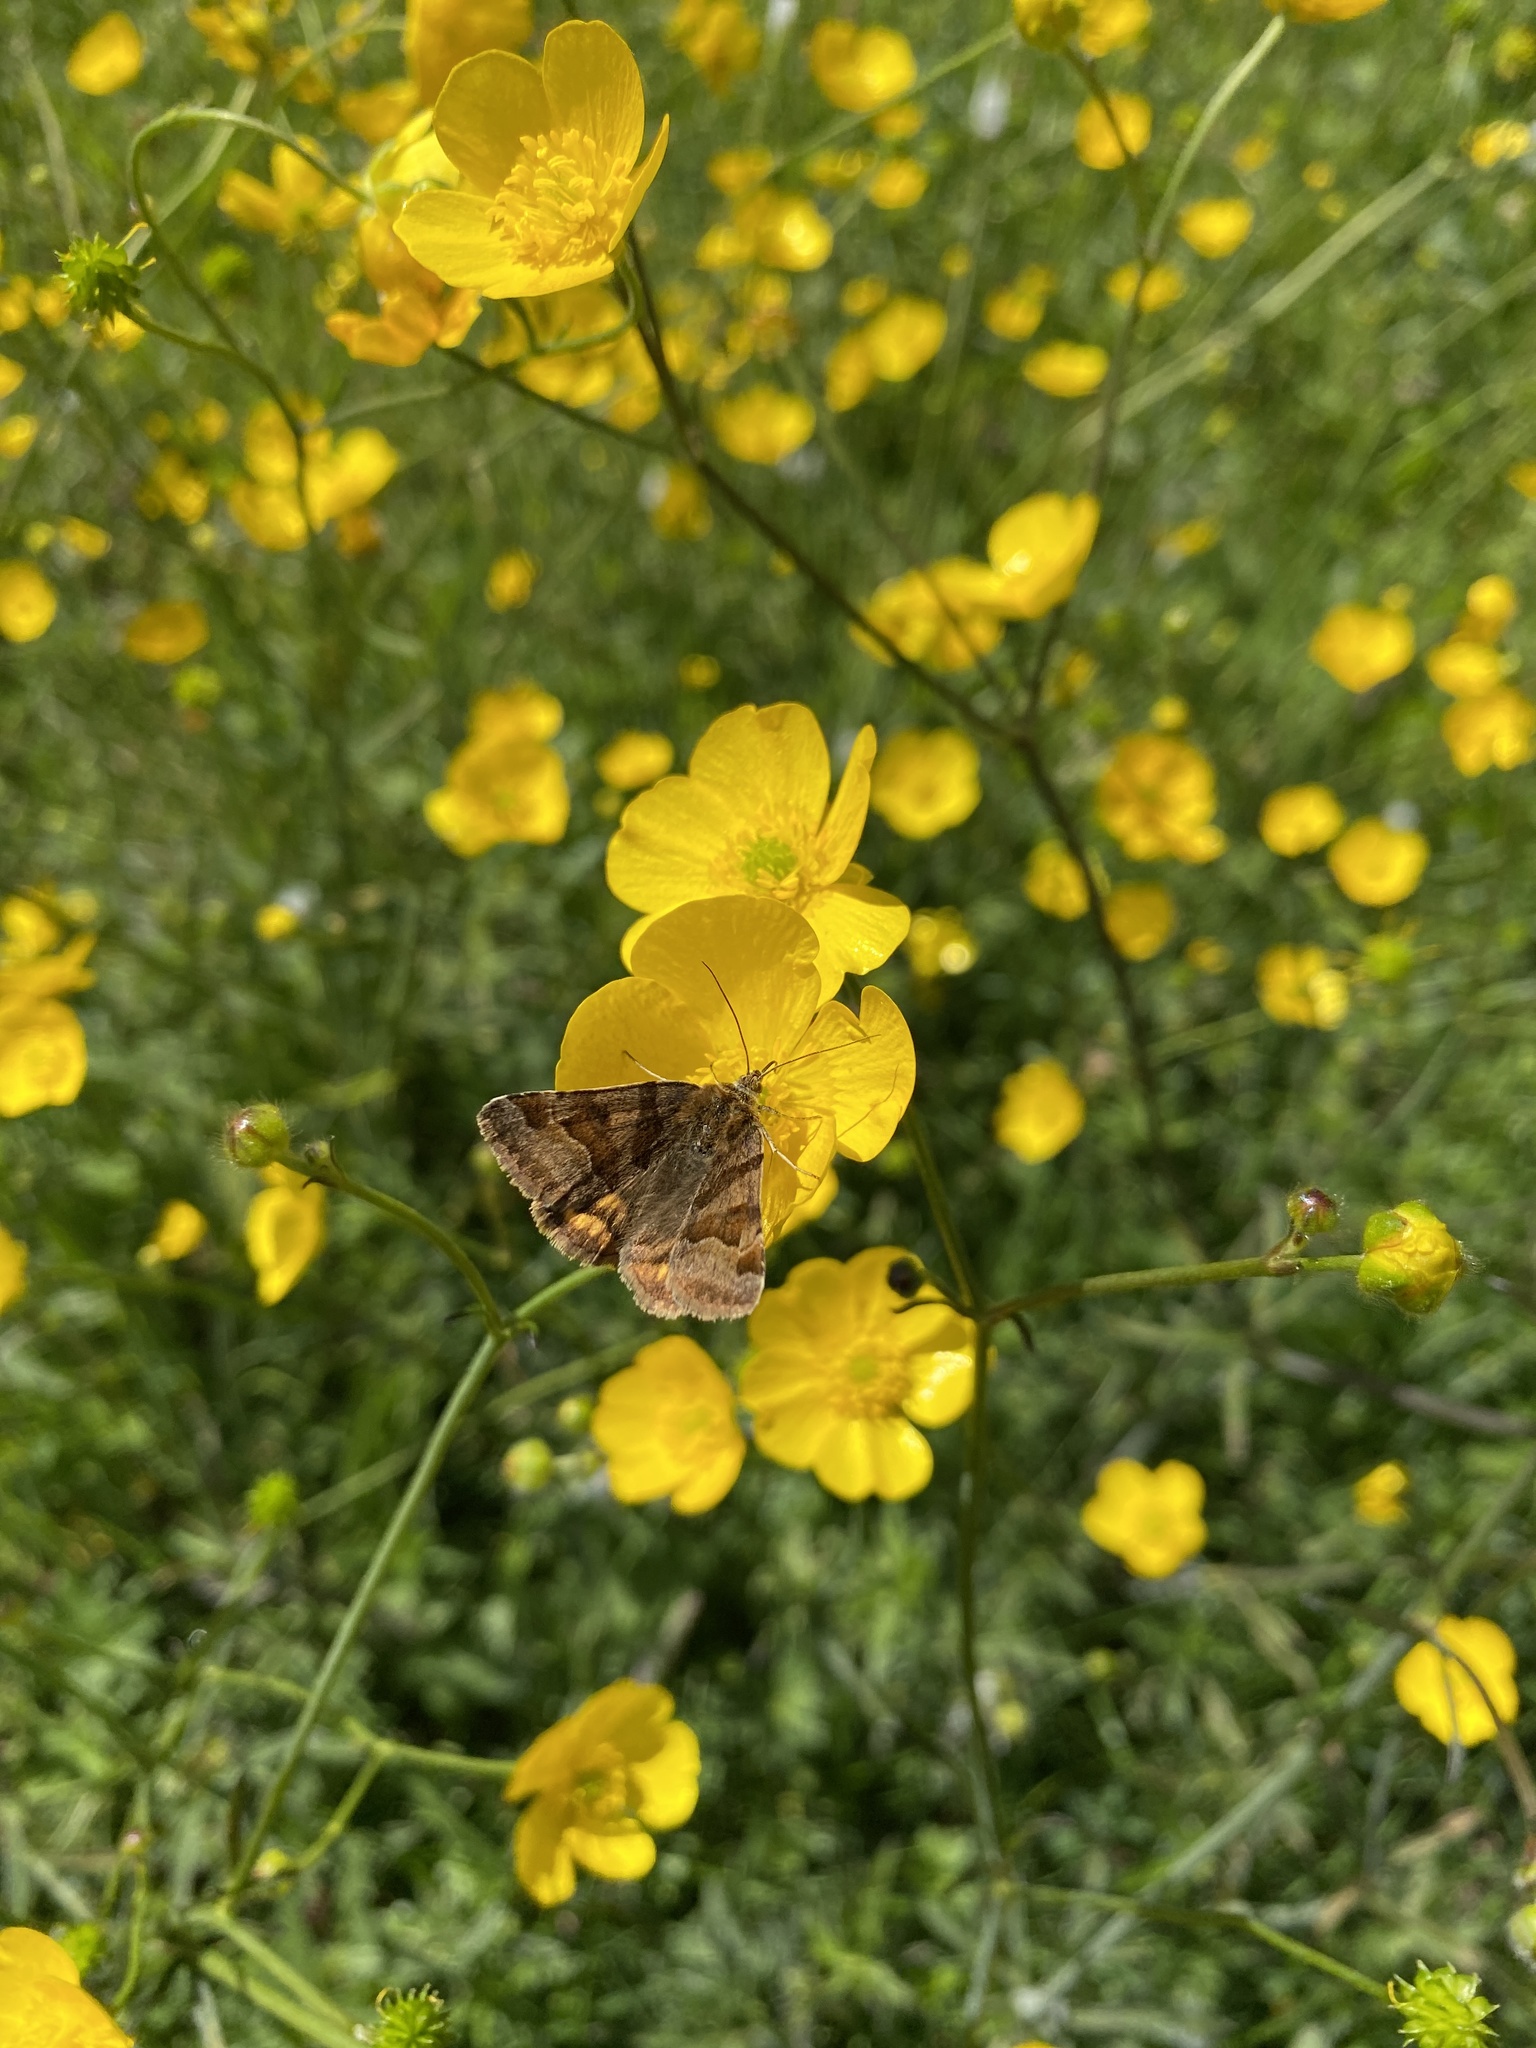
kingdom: Animalia
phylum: Arthropoda
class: Insecta
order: Lepidoptera
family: Erebidae
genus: Euclidia
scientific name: Euclidia glyphica
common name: Burnet companion
